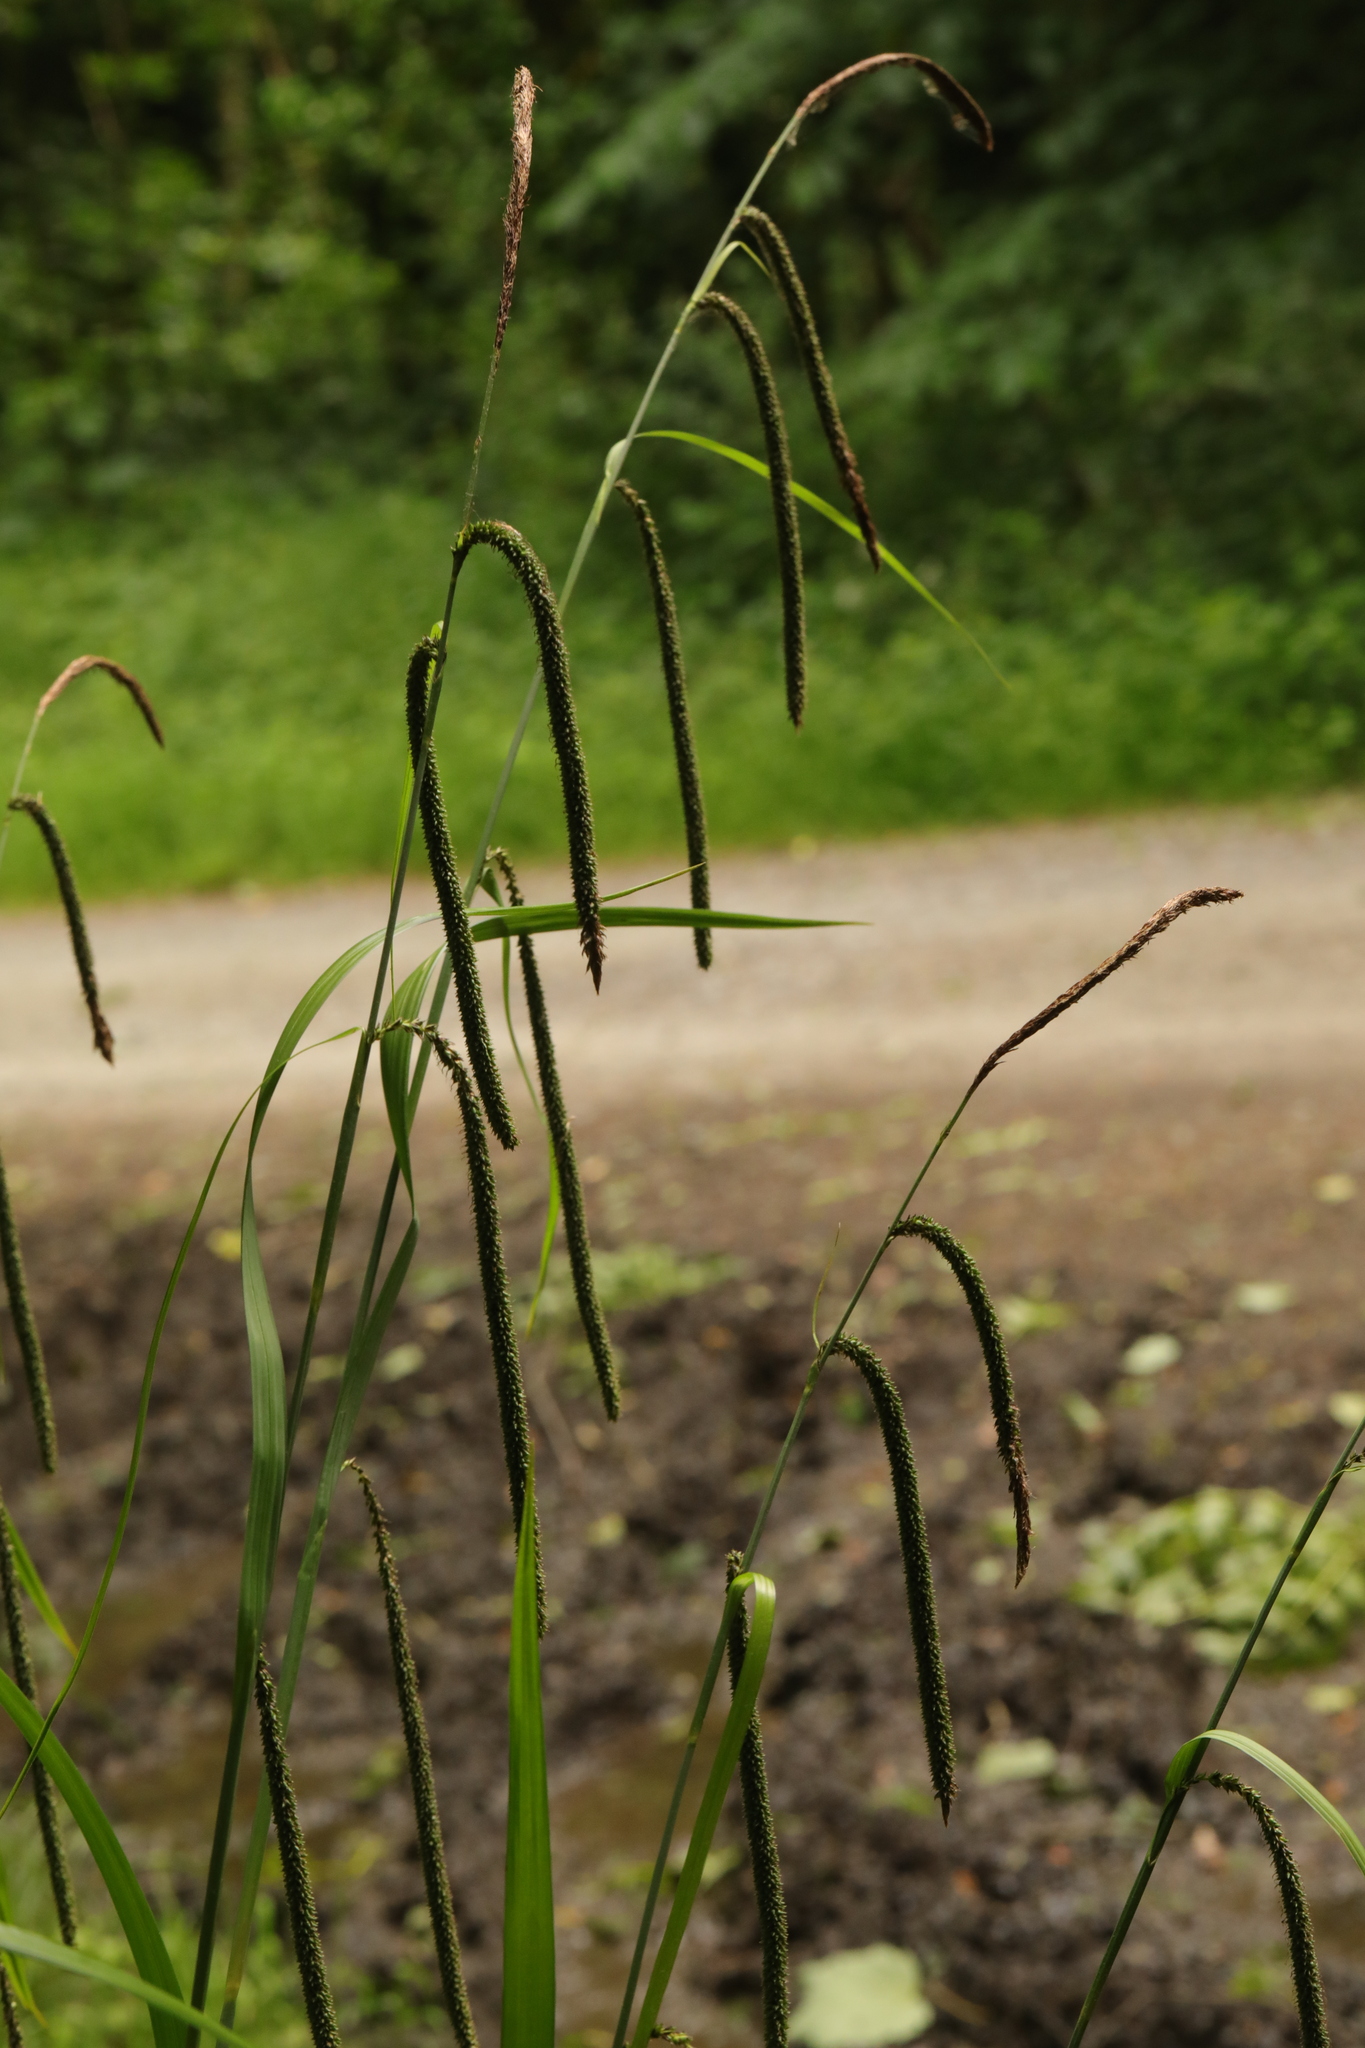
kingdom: Plantae
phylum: Tracheophyta
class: Liliopsida
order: Poales
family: Cyperaceae
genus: Carex
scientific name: Carex pendula
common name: Pendulous sedge
